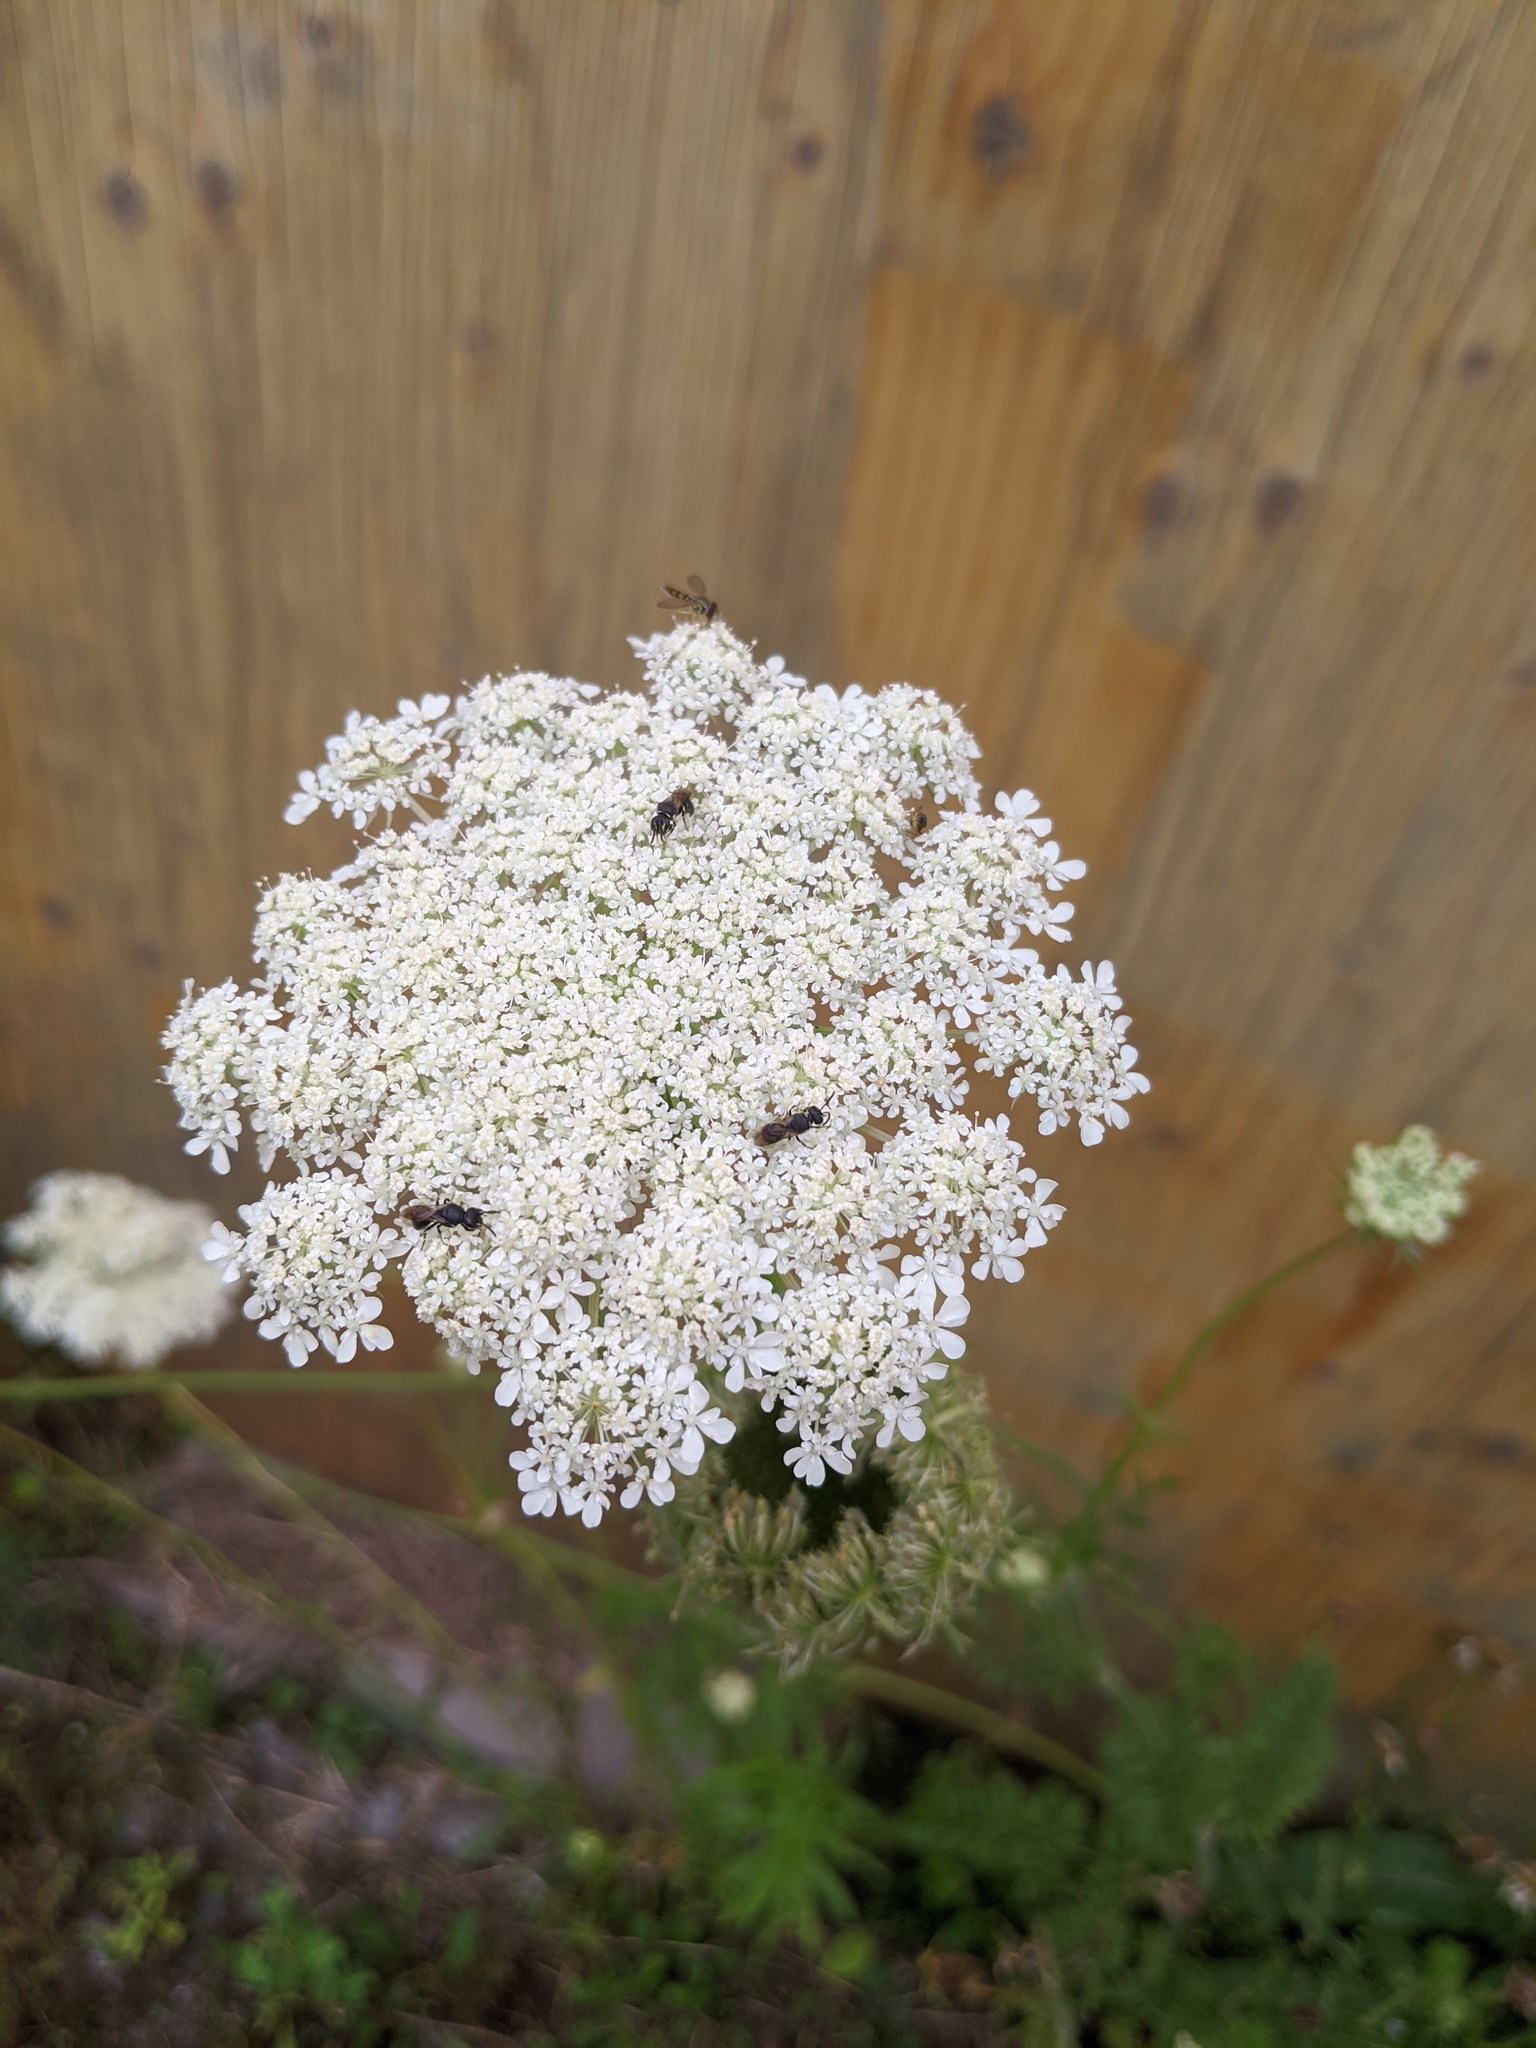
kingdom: Plantae
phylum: Tracheophyta
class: Magnoliopsida
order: Apiales
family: Apiaceae
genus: Daucus
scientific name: Daucus carota
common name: Wild carrot
